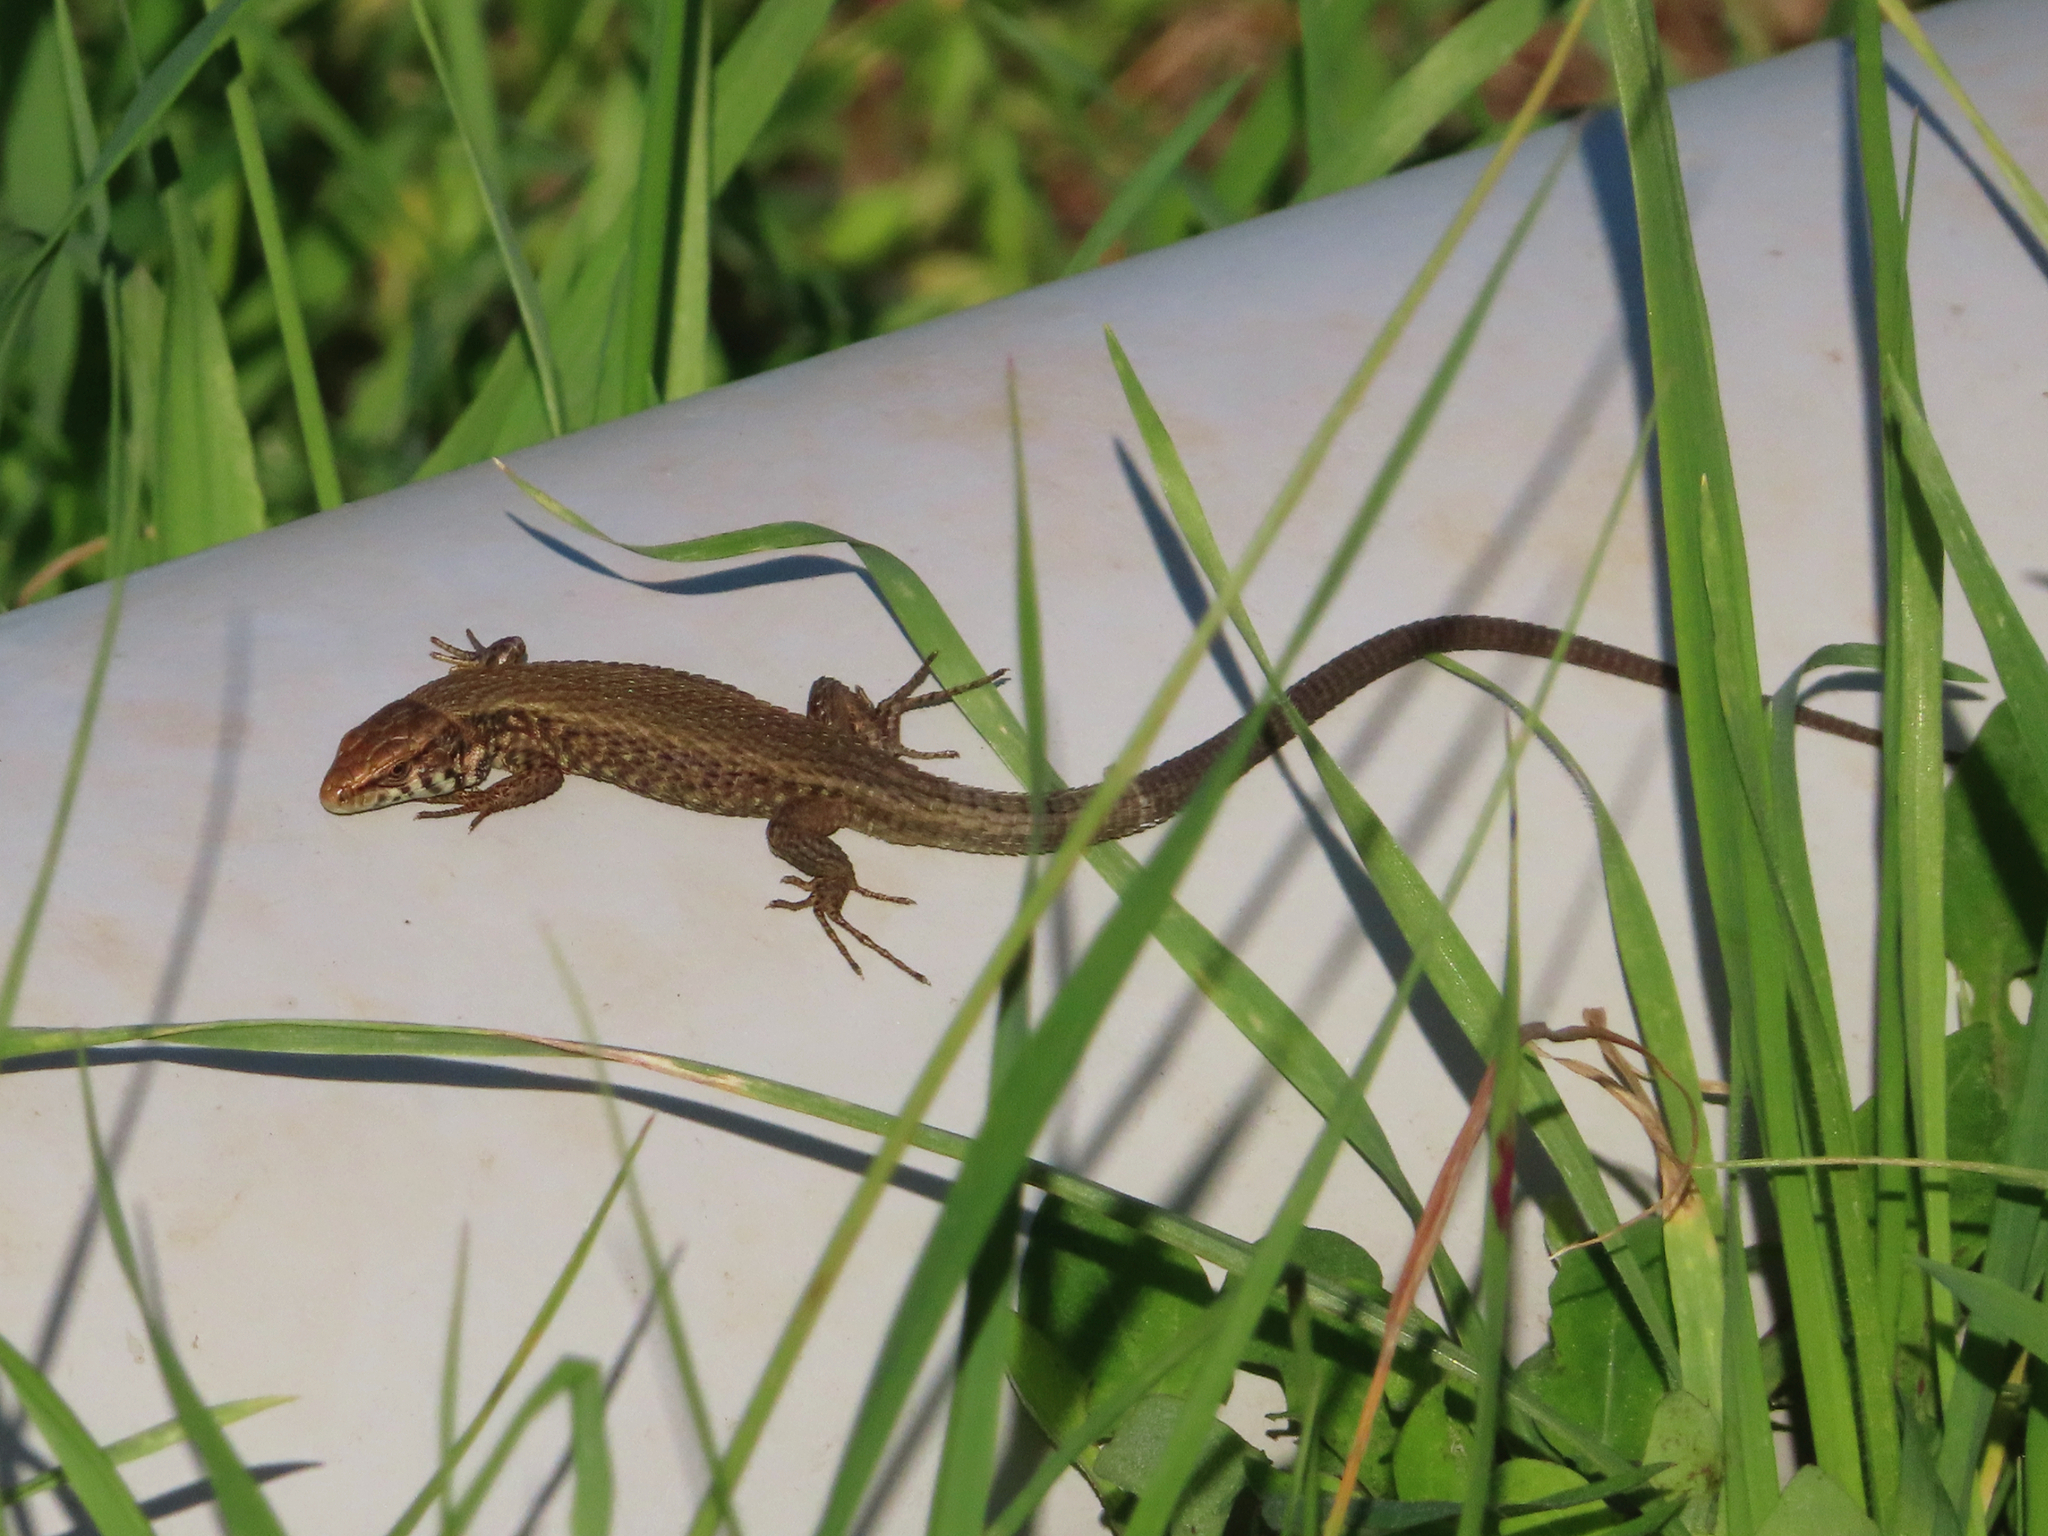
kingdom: Animalia
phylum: Chordata
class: Squamata
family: Lacertidae
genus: Algyroides
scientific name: Algyroides moreoticus
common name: Greek algyroides
